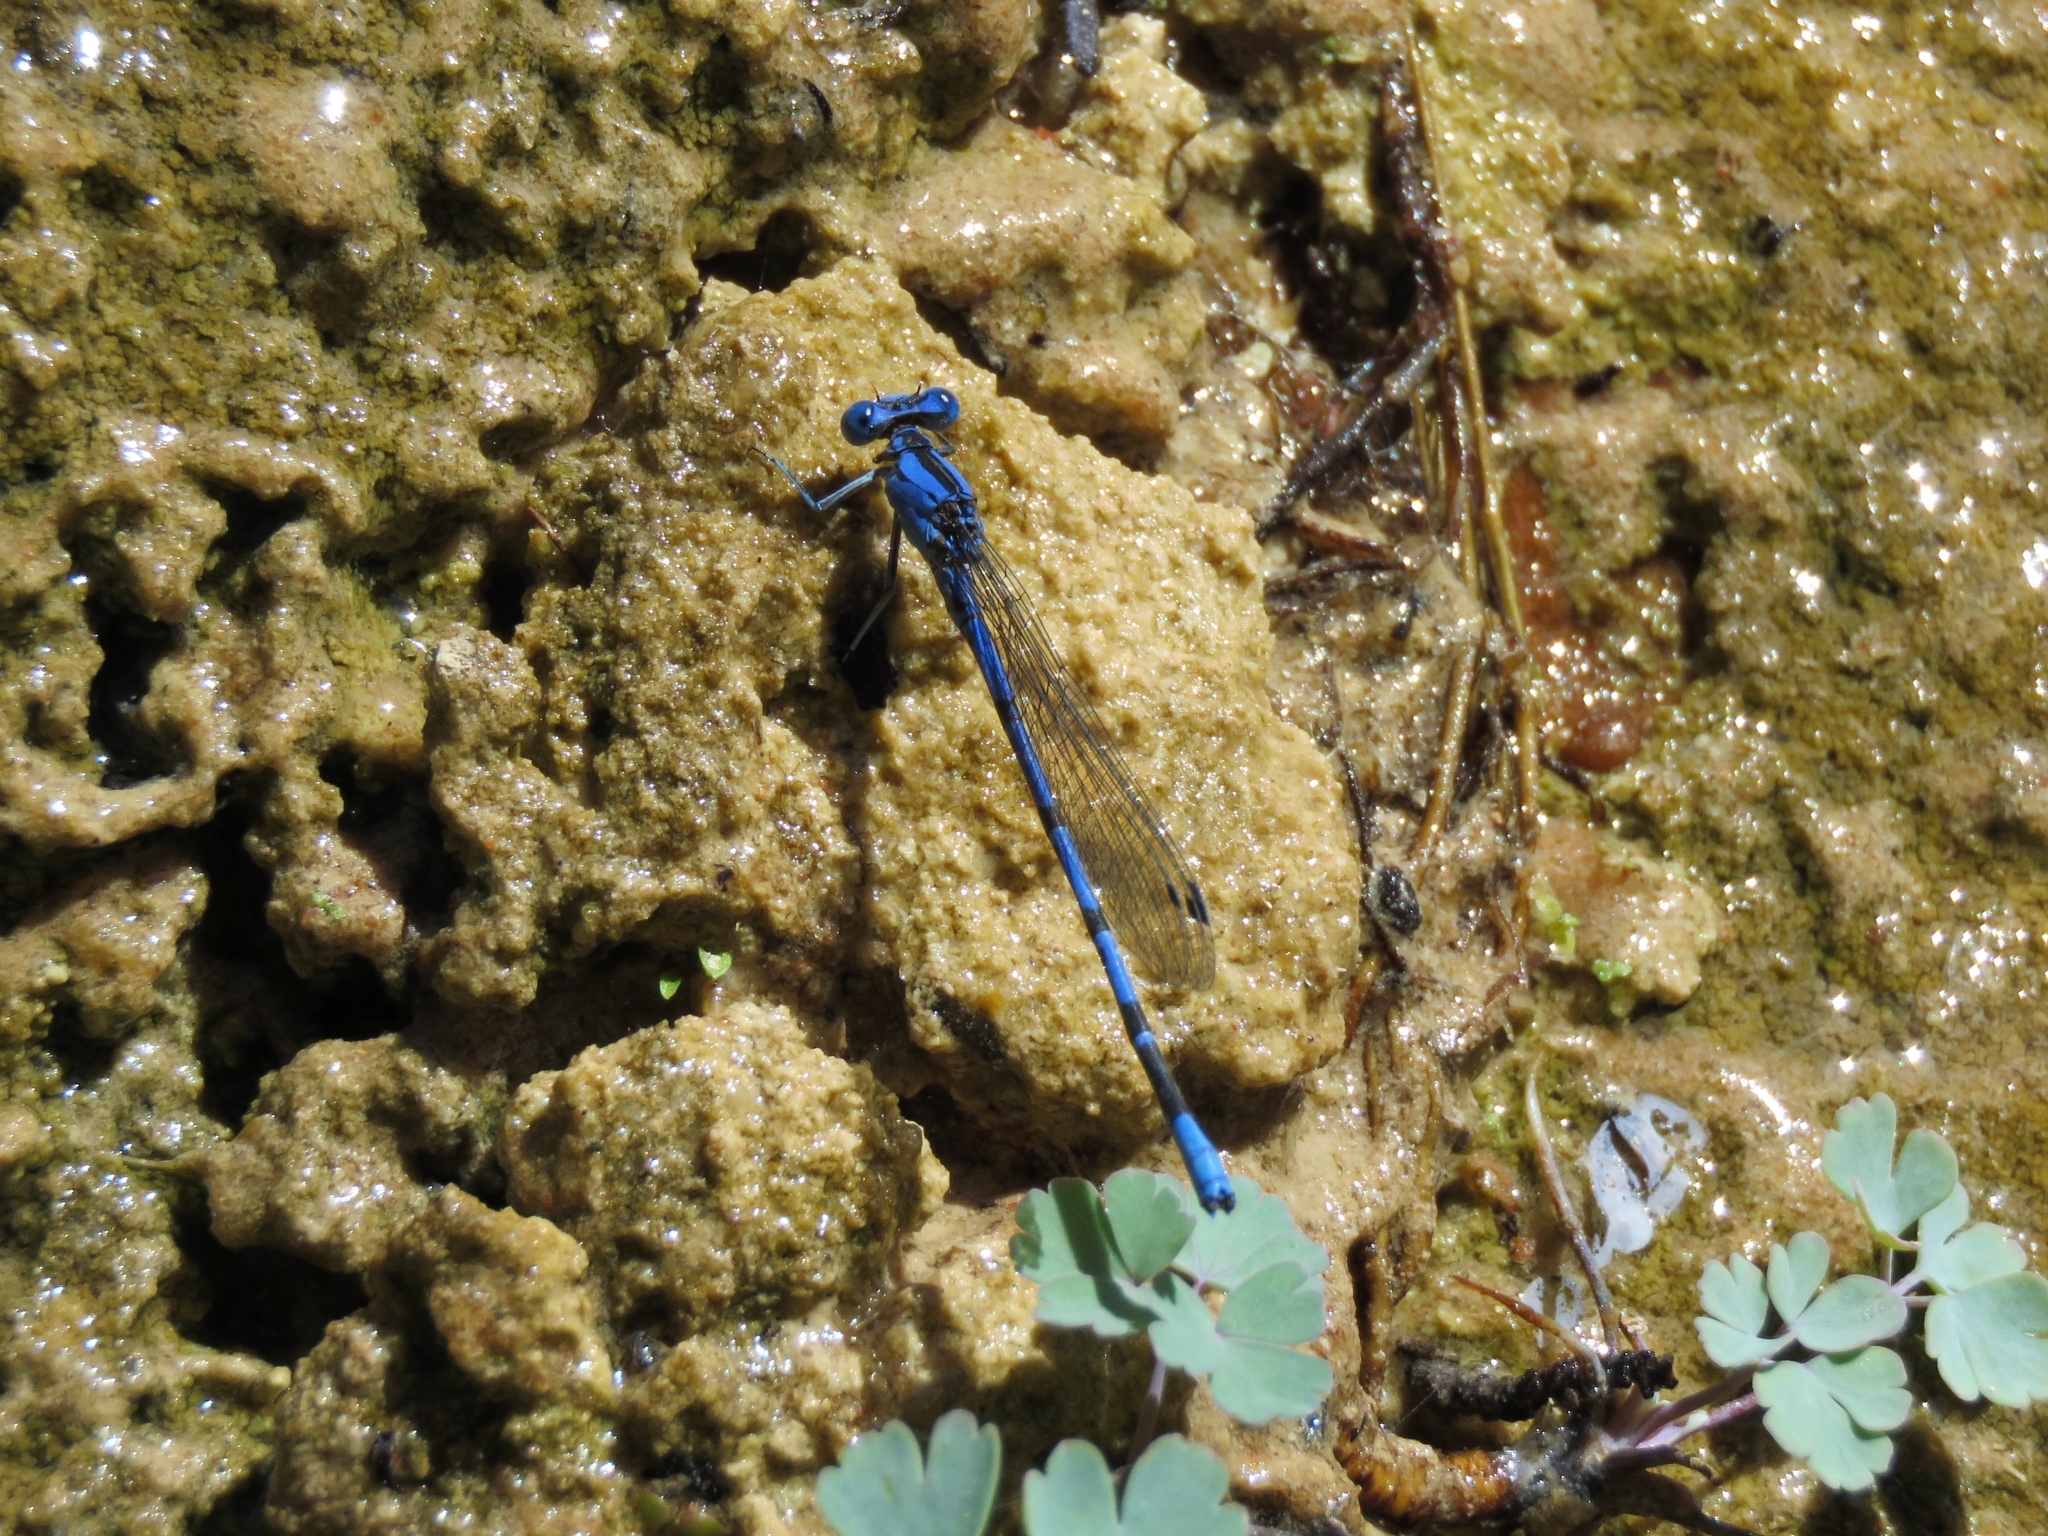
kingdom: Animalia
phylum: Arthropoda
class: Insecta
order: Odonata
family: Coenagrionidae
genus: Argia
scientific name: Argia vivida
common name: Vivid dancer
